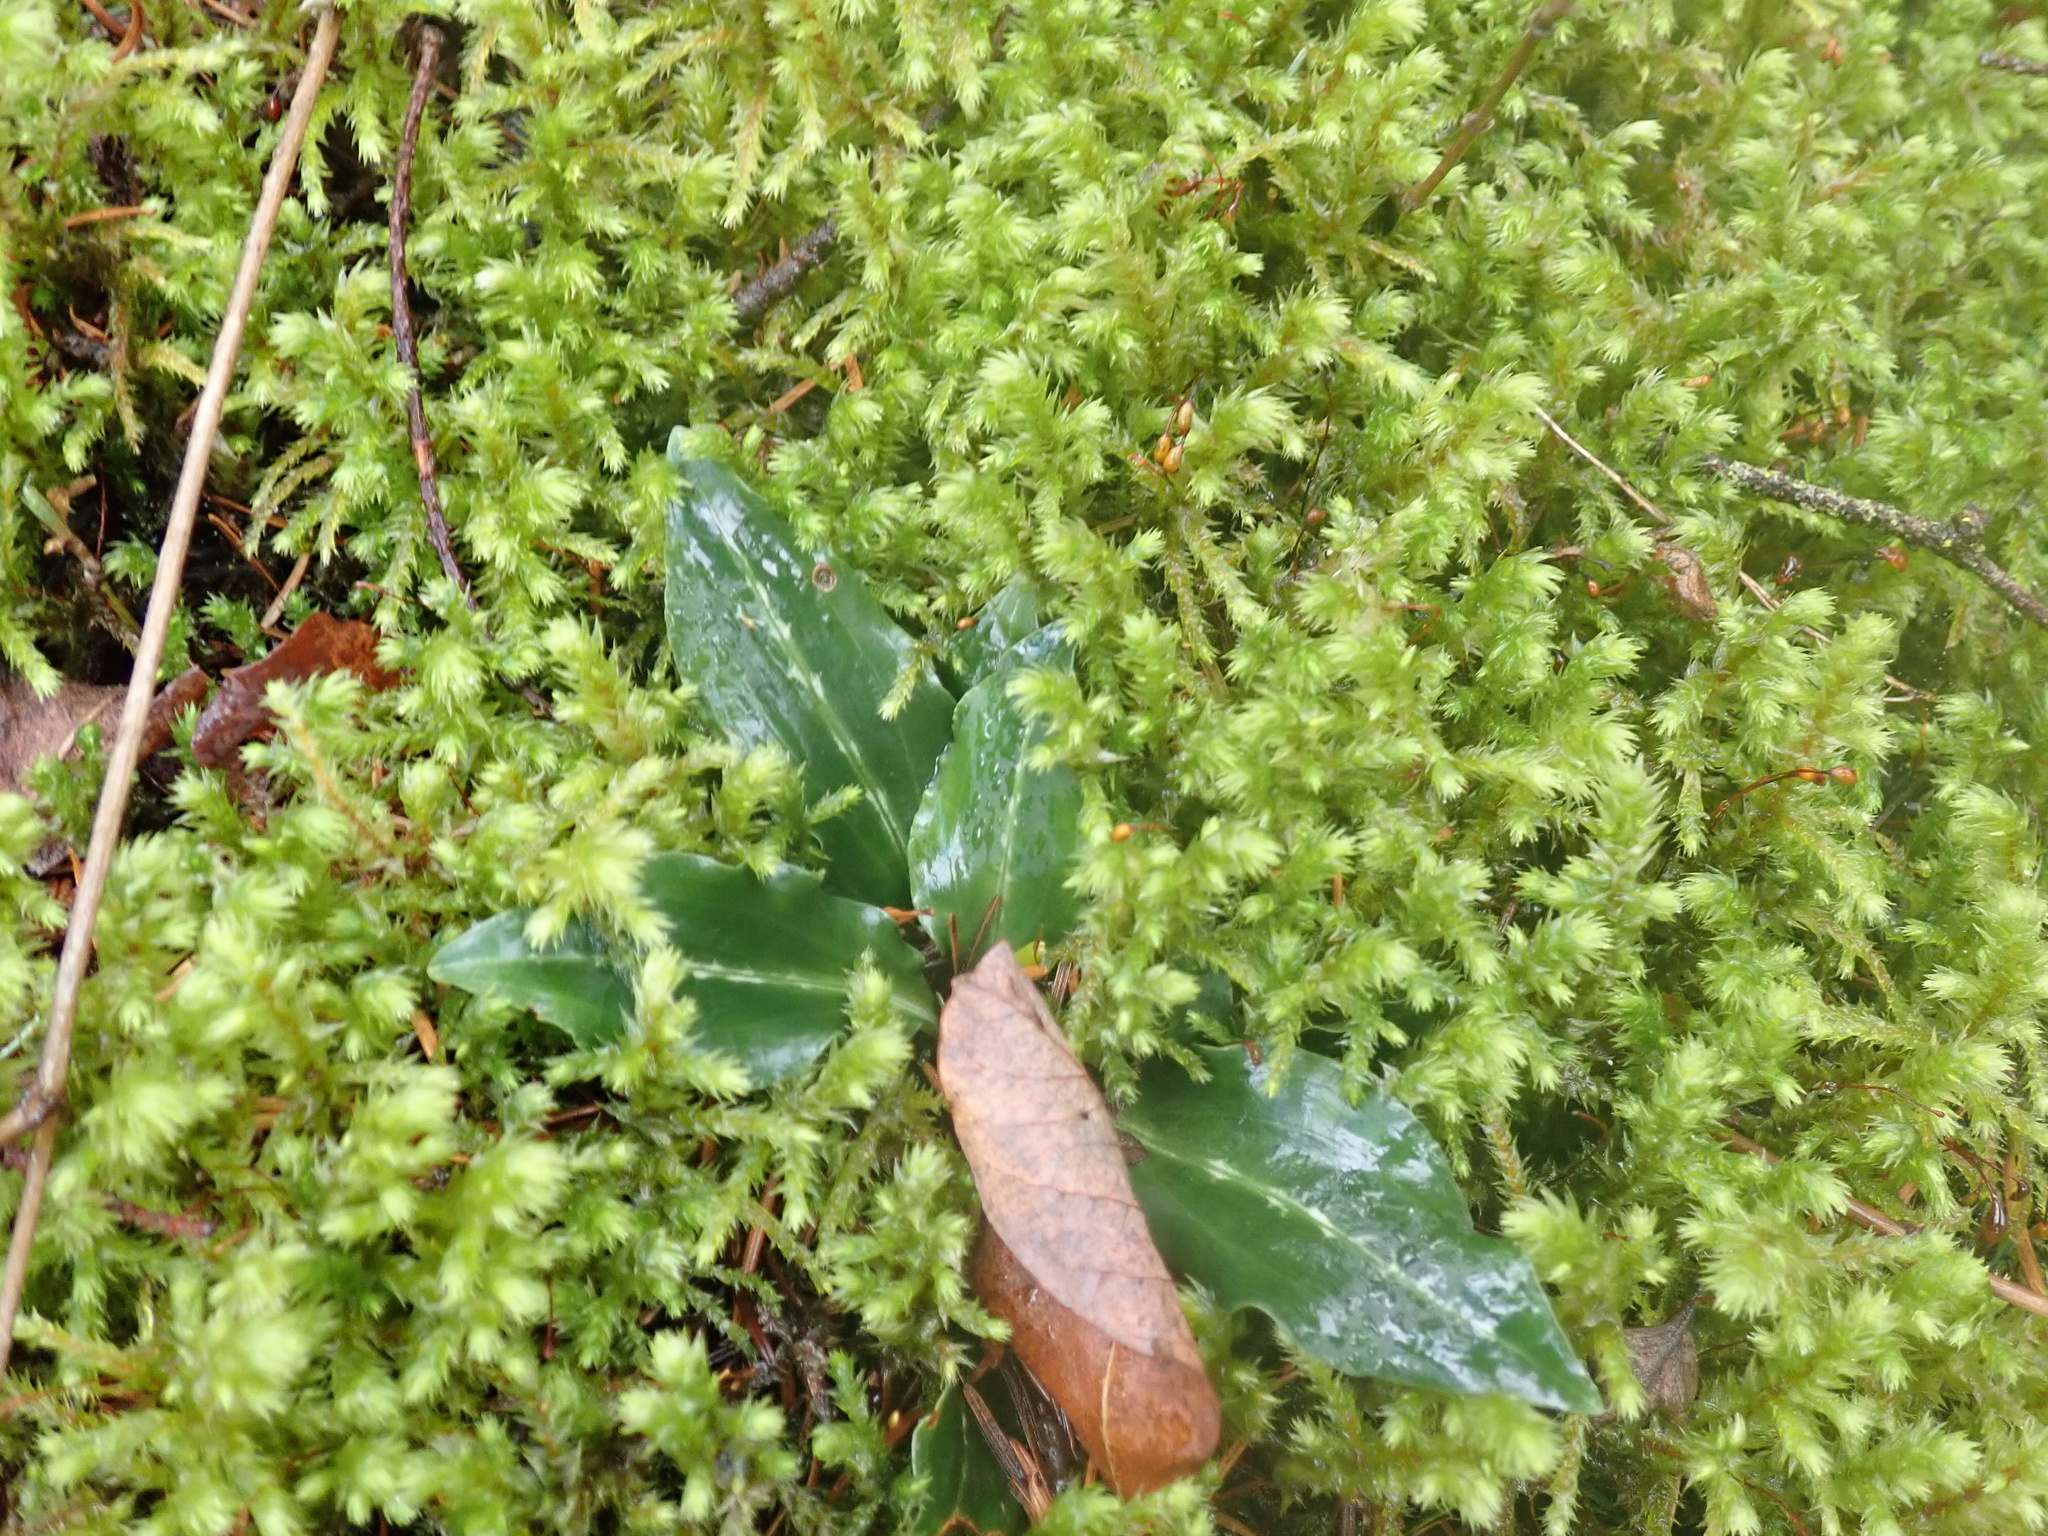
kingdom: Plantae
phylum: Tracheophyta
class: Liliopsida
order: Asparagales
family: Orchidaceae
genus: Goodyera
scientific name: Goodyera oblongifolia
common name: Giant rattlesnake-plantain
